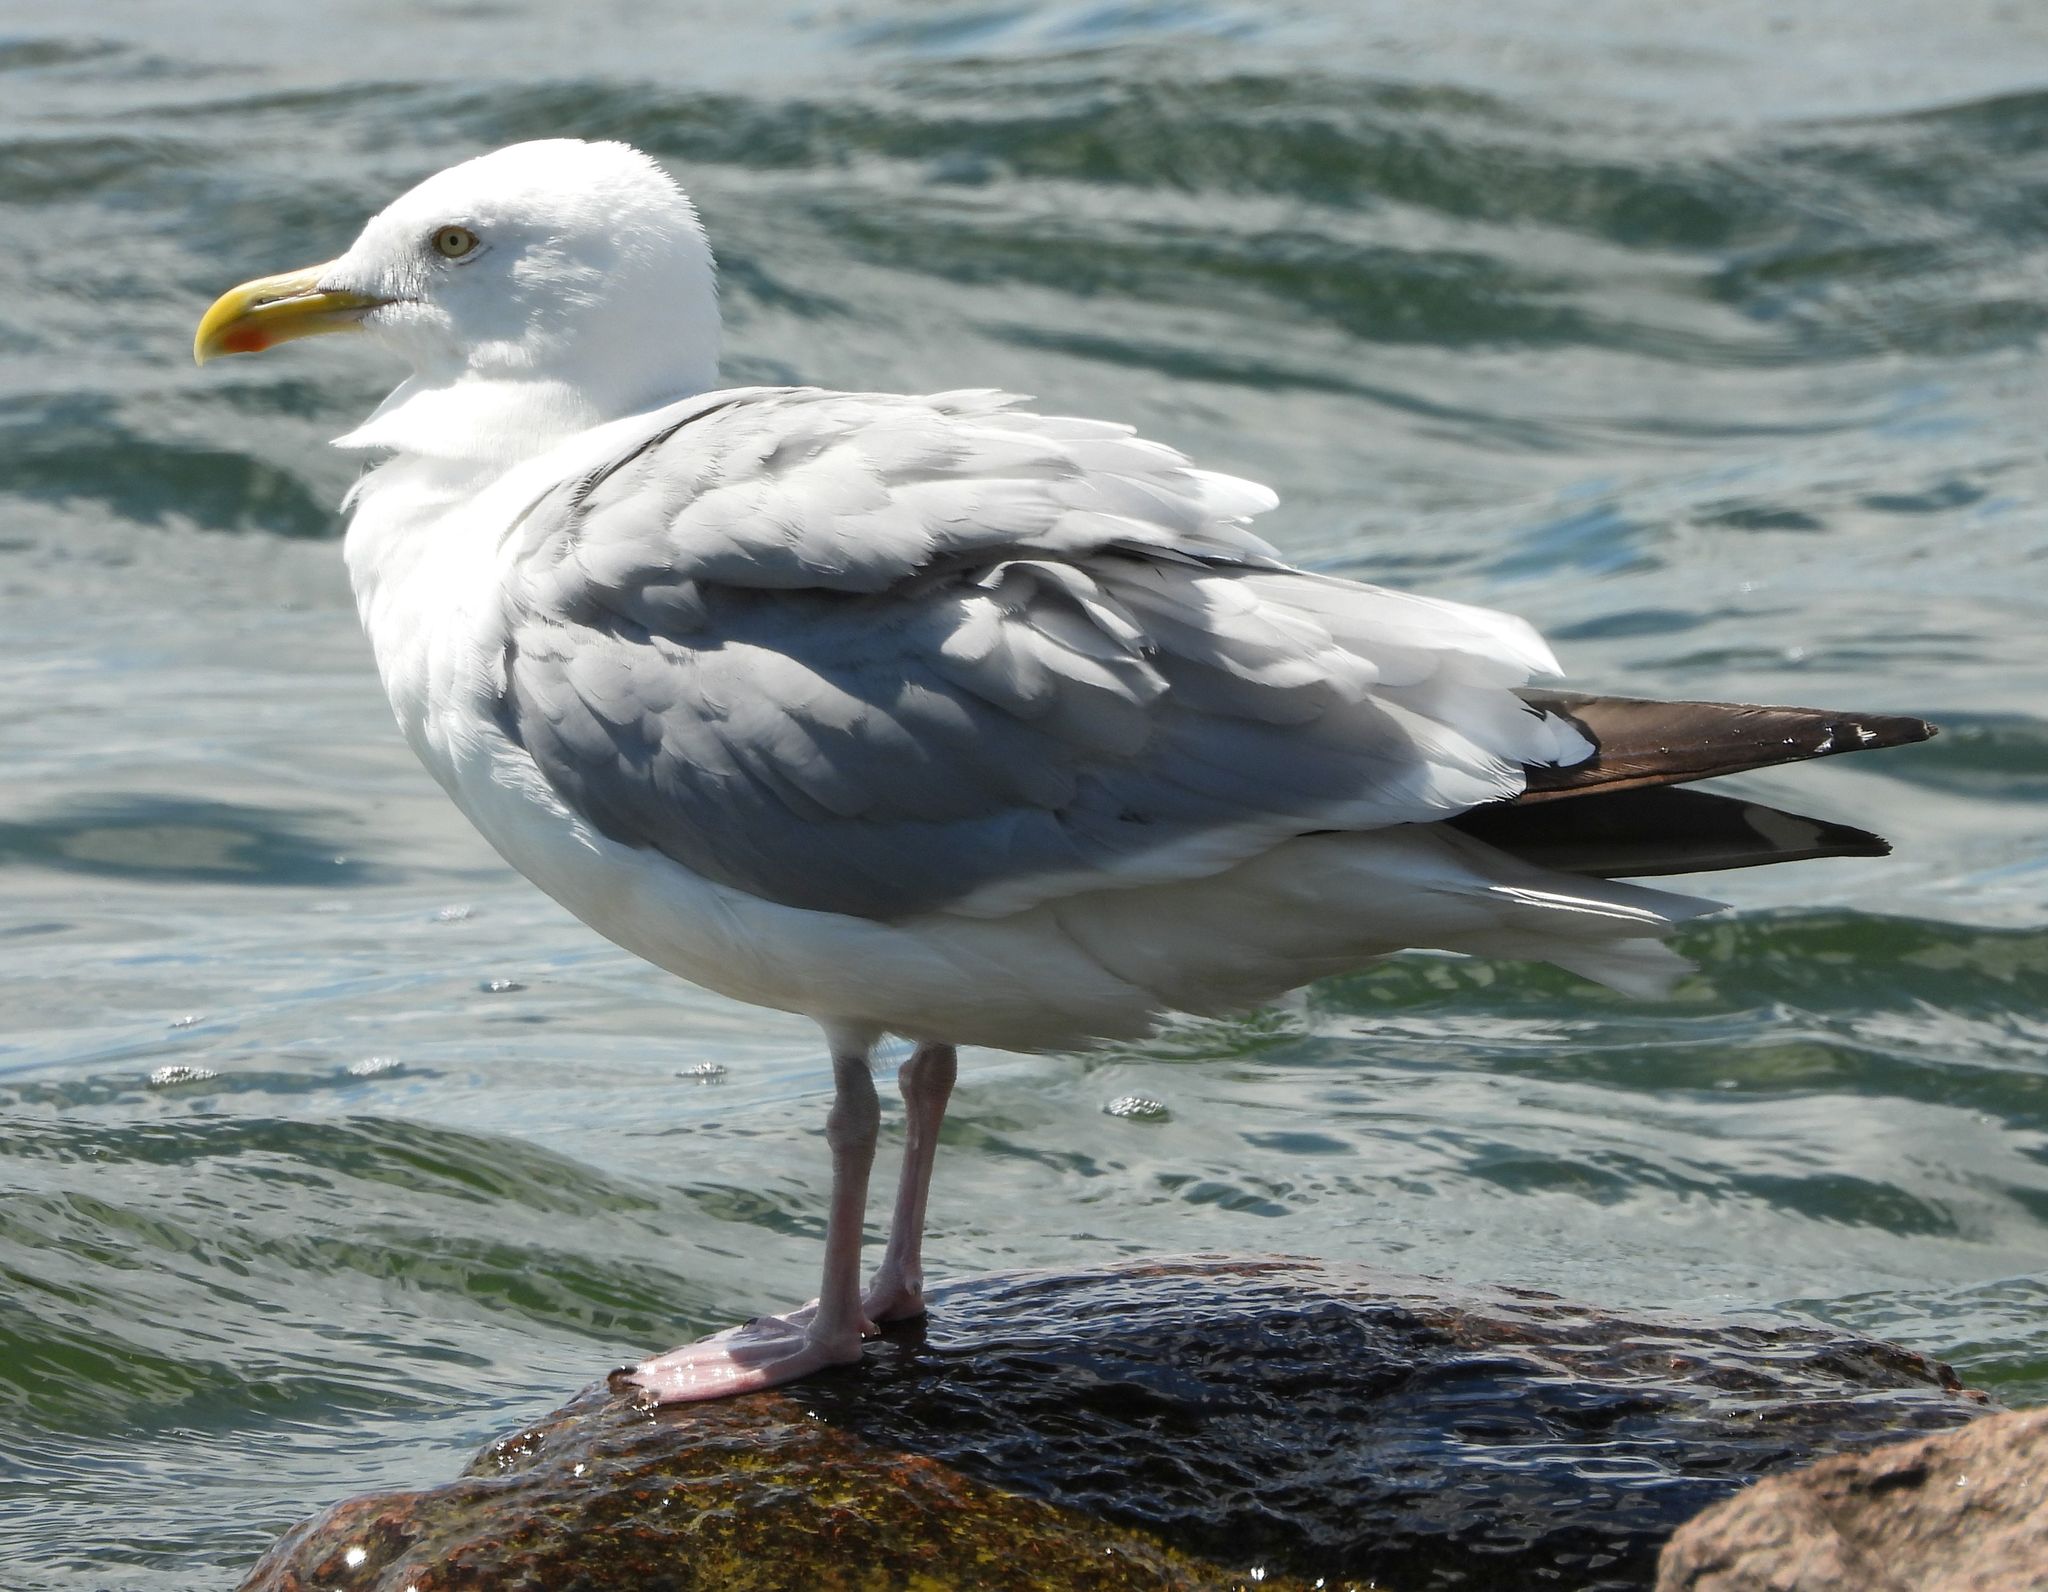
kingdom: Animalia
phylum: Chordata
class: Aves
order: Charadriiformes
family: Laridae
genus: Larus
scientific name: Larus argentatus
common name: Herring gull
